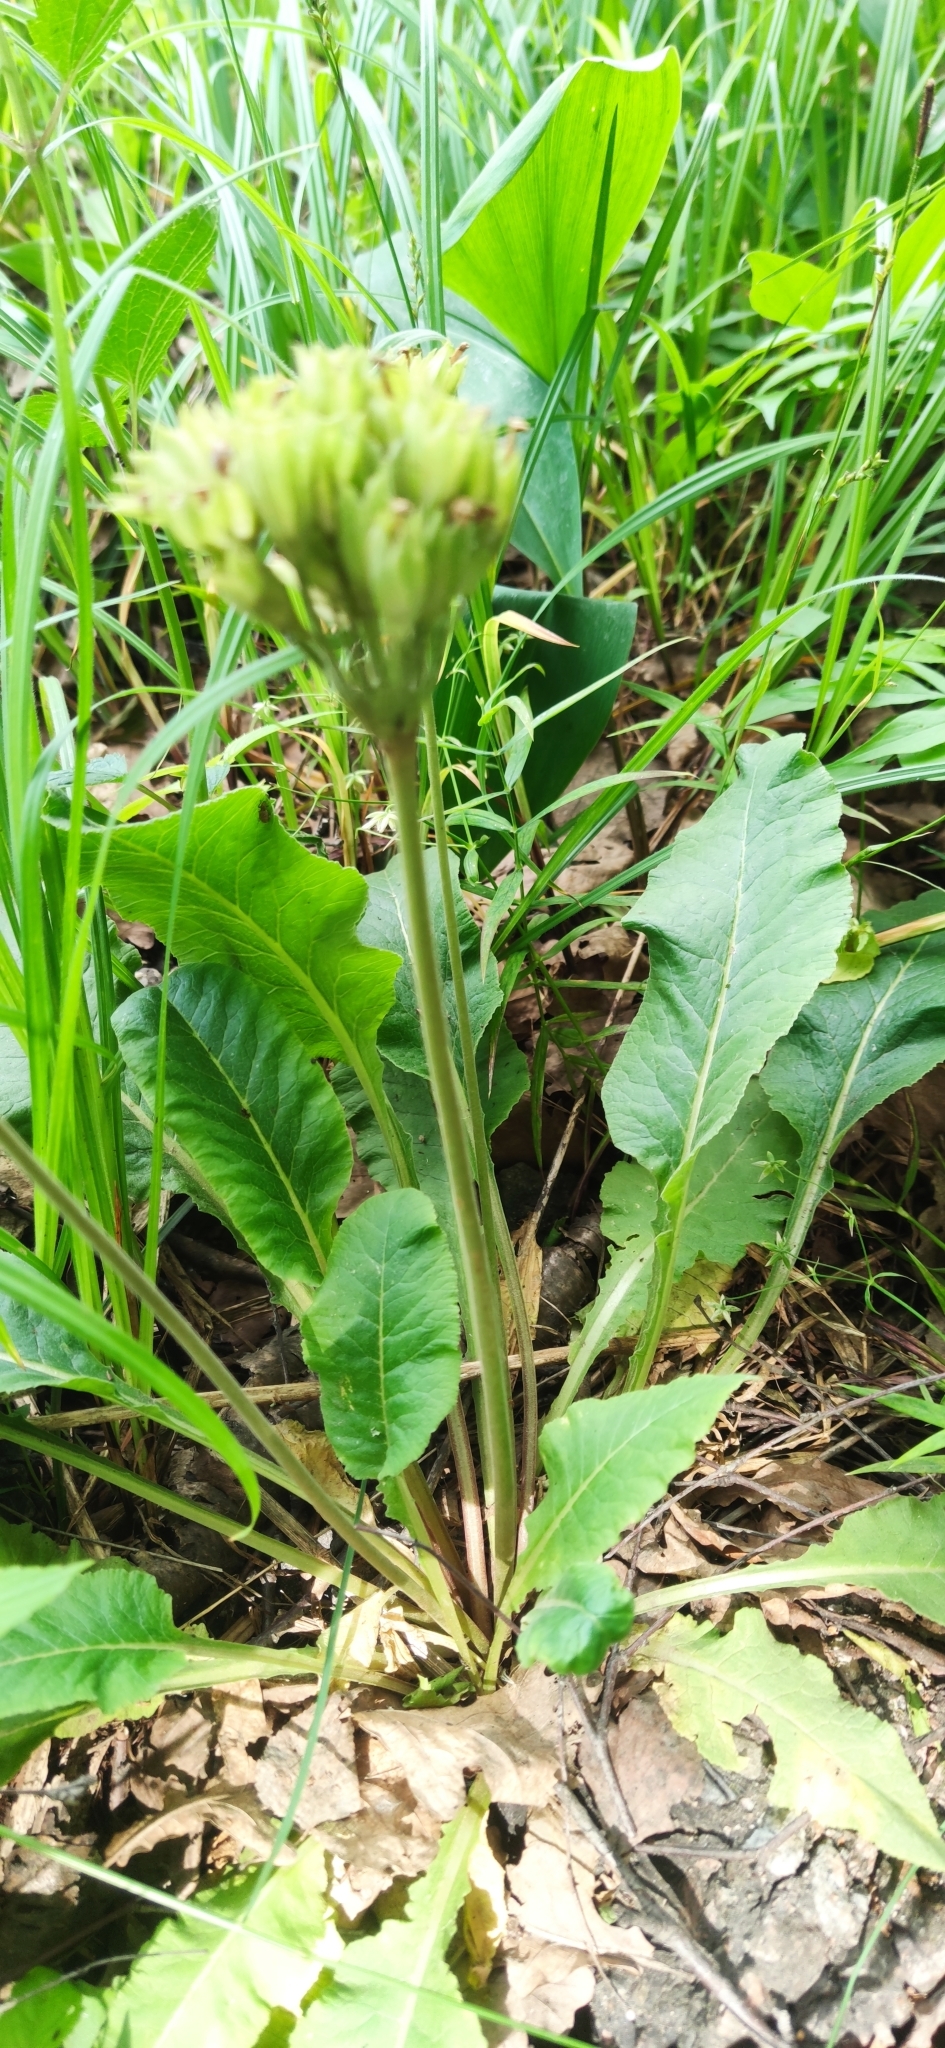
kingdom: Plantae
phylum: Tracheophyta
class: Magnoliopsida
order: Ericales
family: Primulaceae
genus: Primula
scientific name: Primula veris
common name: Cowslip
